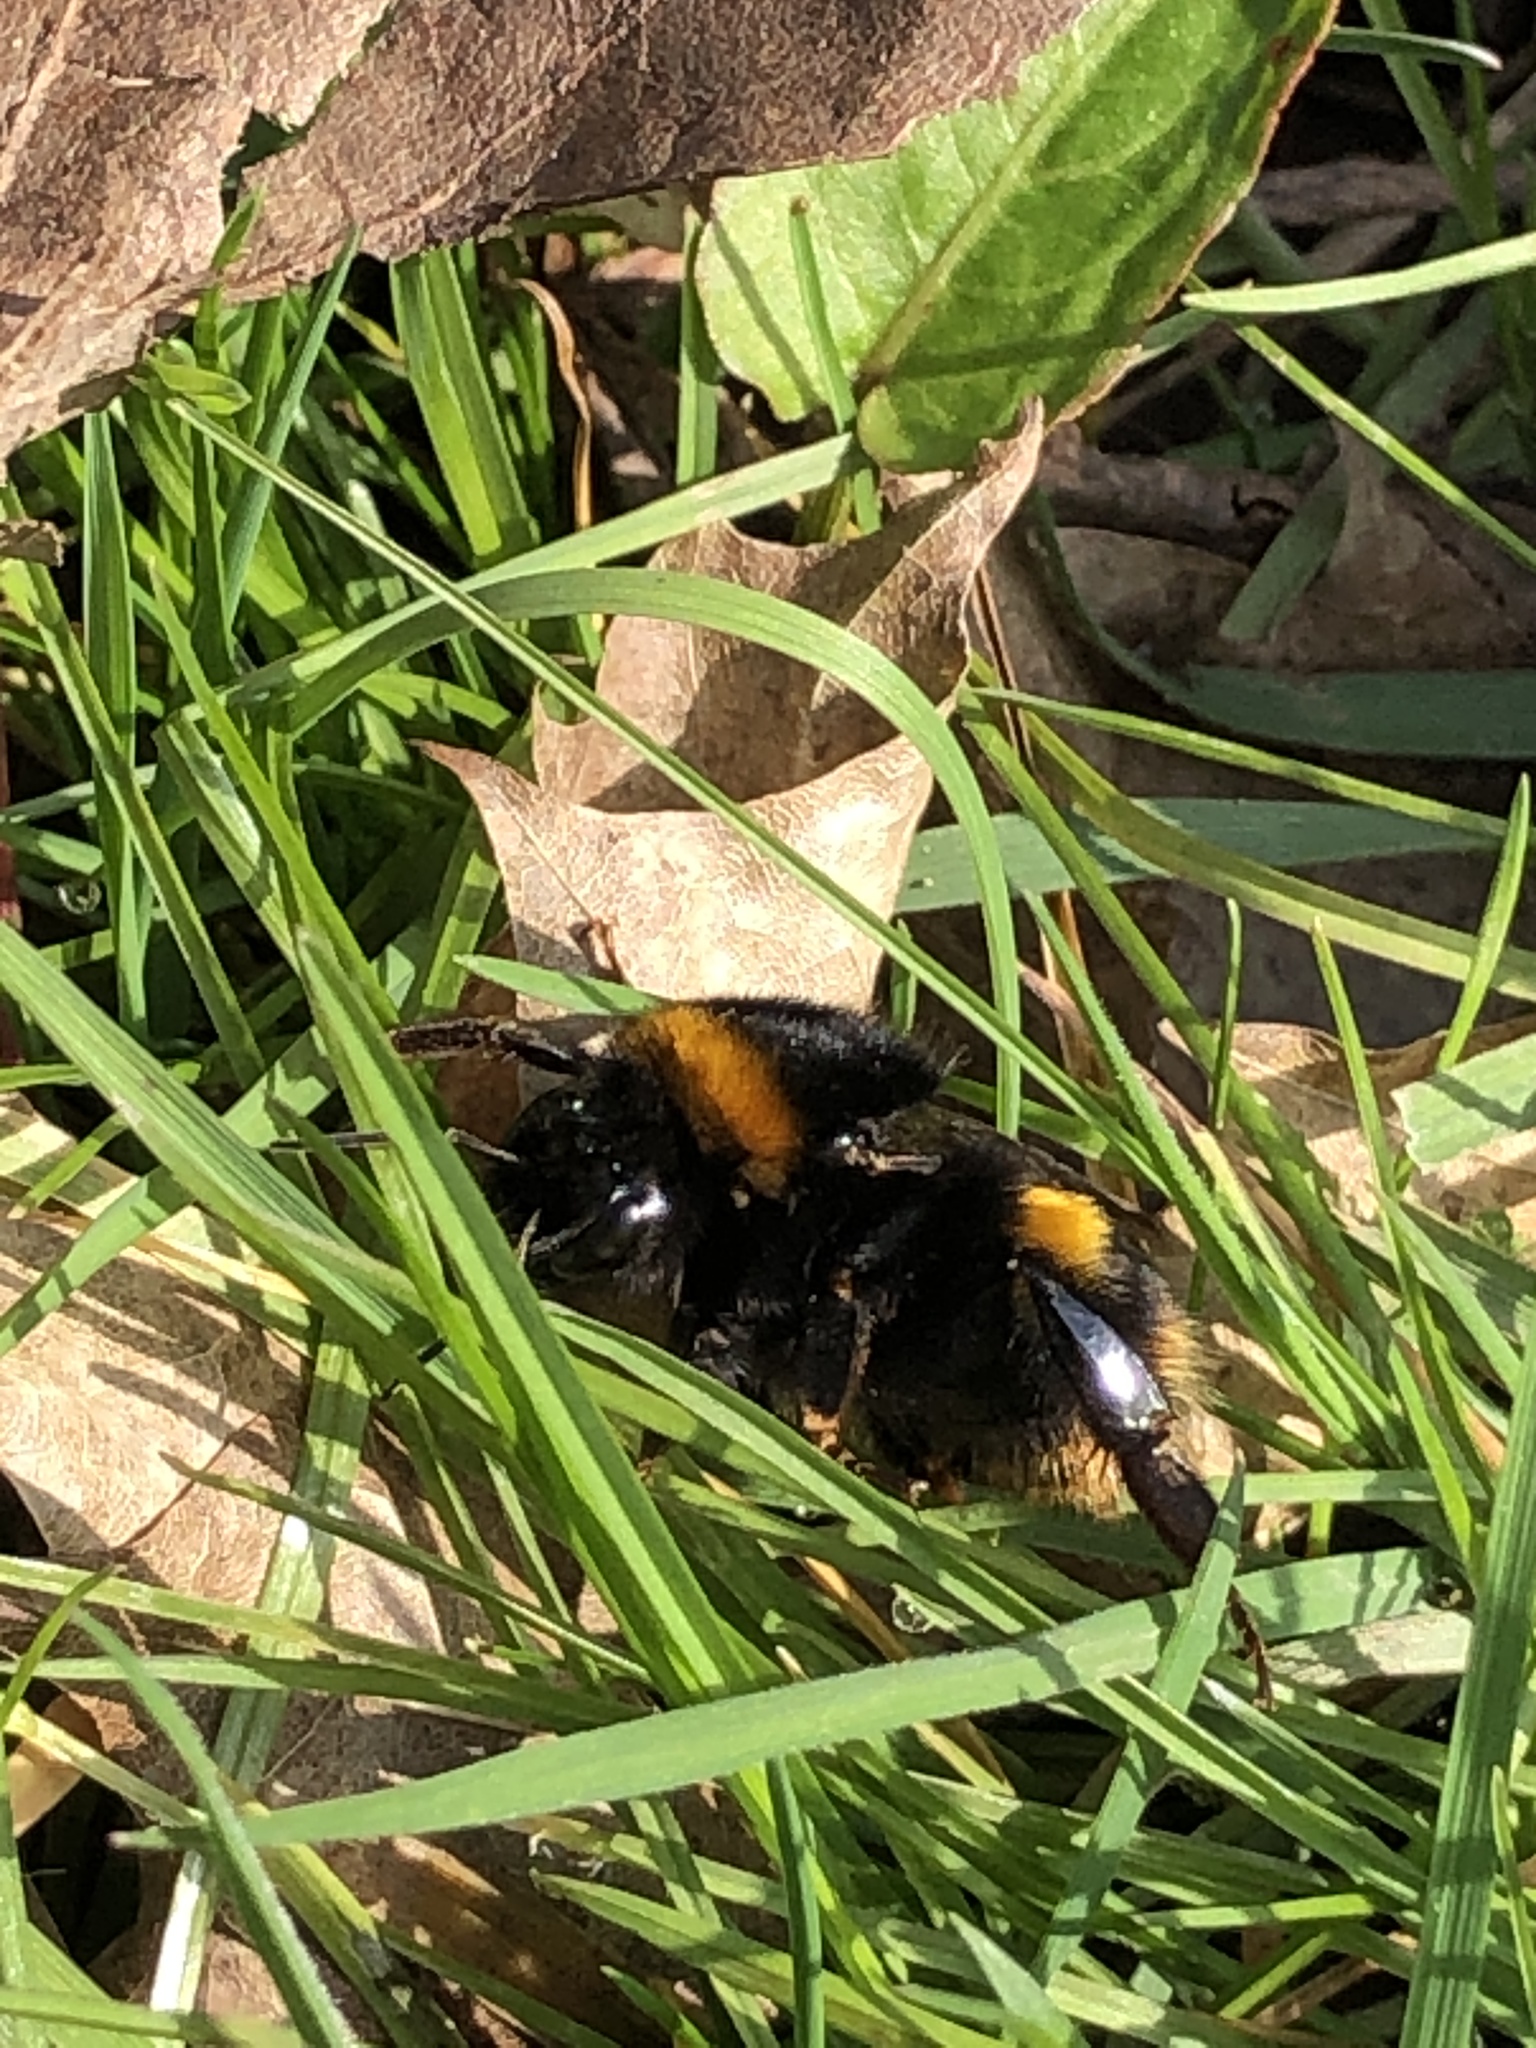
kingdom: Animalia
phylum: Arthropoda
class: Insecta
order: Hymenoptera
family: Apidae
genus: Bombus
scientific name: Bombus terrestris
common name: Buff-tailed bumblebee
